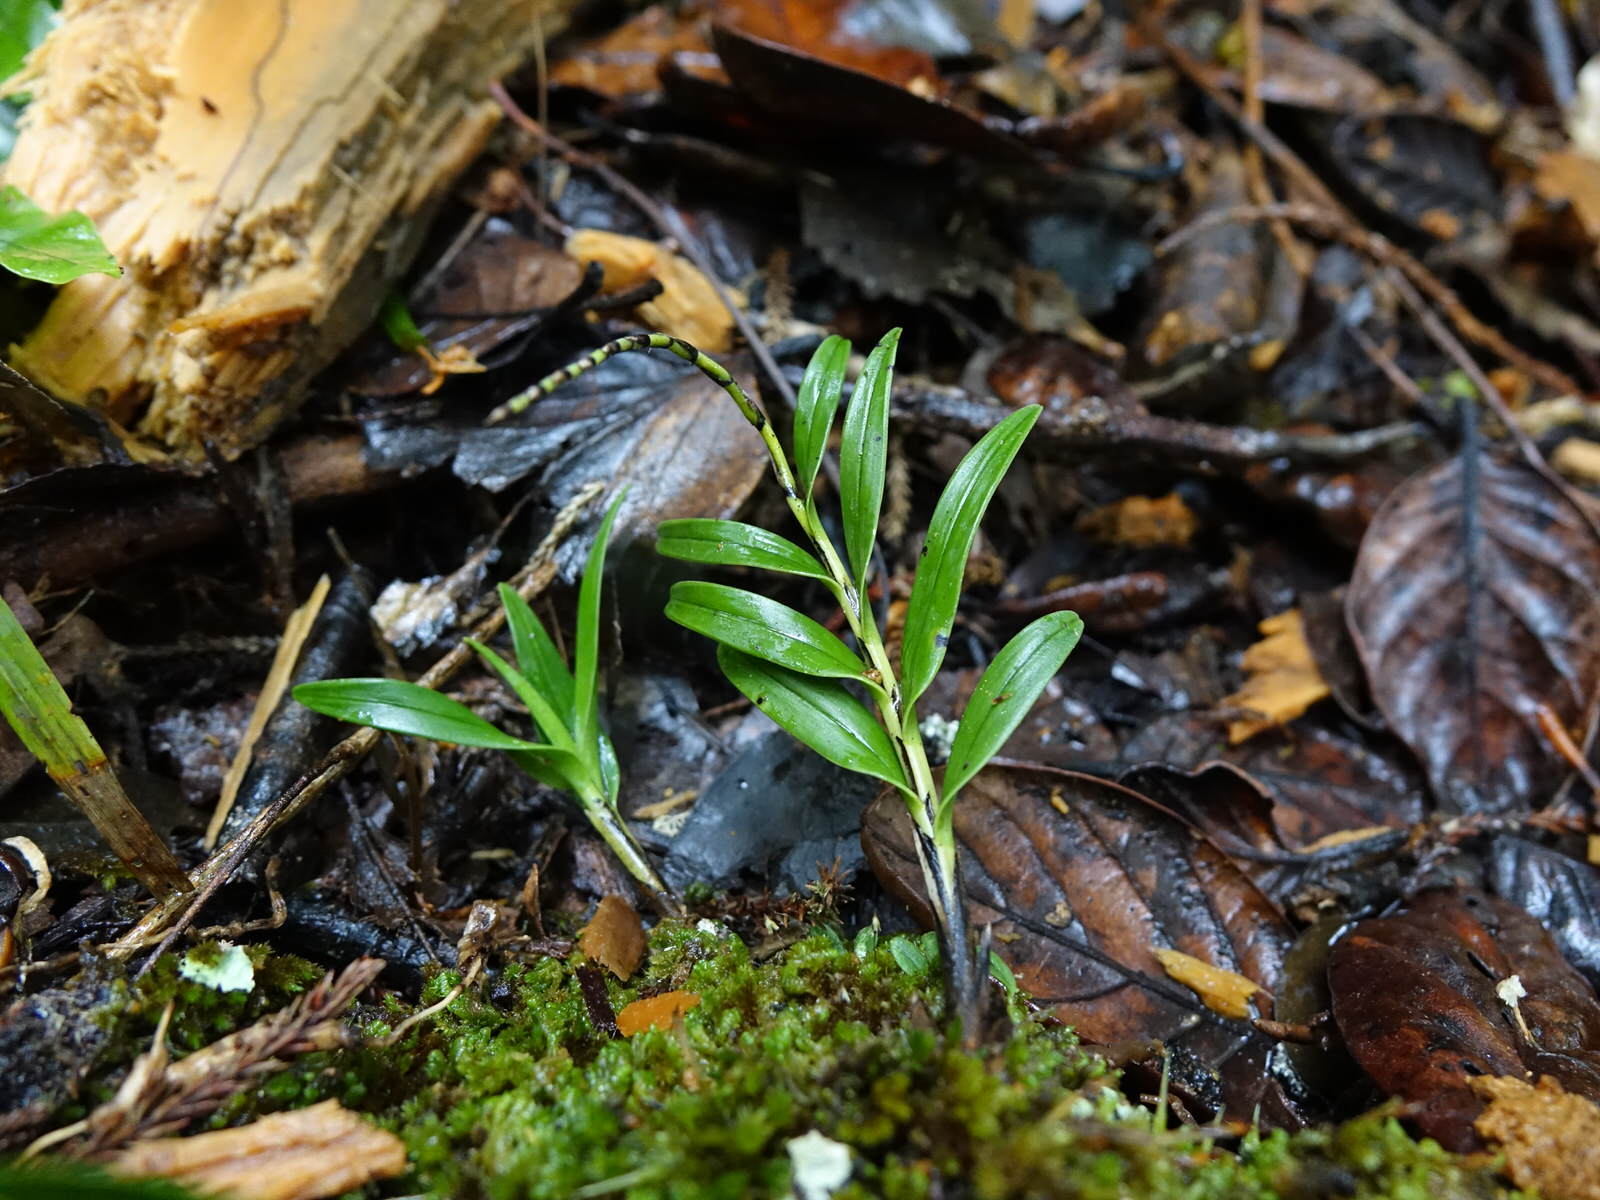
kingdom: Plantae
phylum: Tracheophyta
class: Liliopsida
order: Asparagales
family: Orchidaceae
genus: Earina
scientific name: Earina autumnalis
